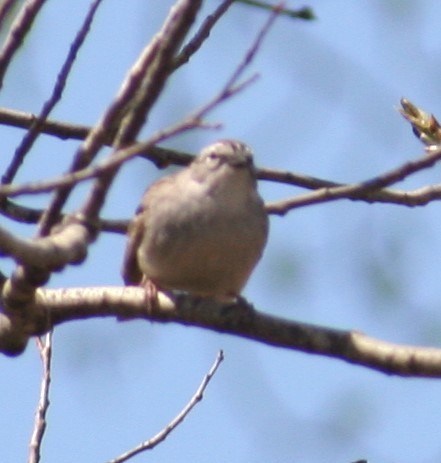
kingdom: Animalia
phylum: Chordata
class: Aves
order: Passeriformes
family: Passerellidae
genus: Spizella
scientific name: Spizella passerina
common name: Chipping sparrow
